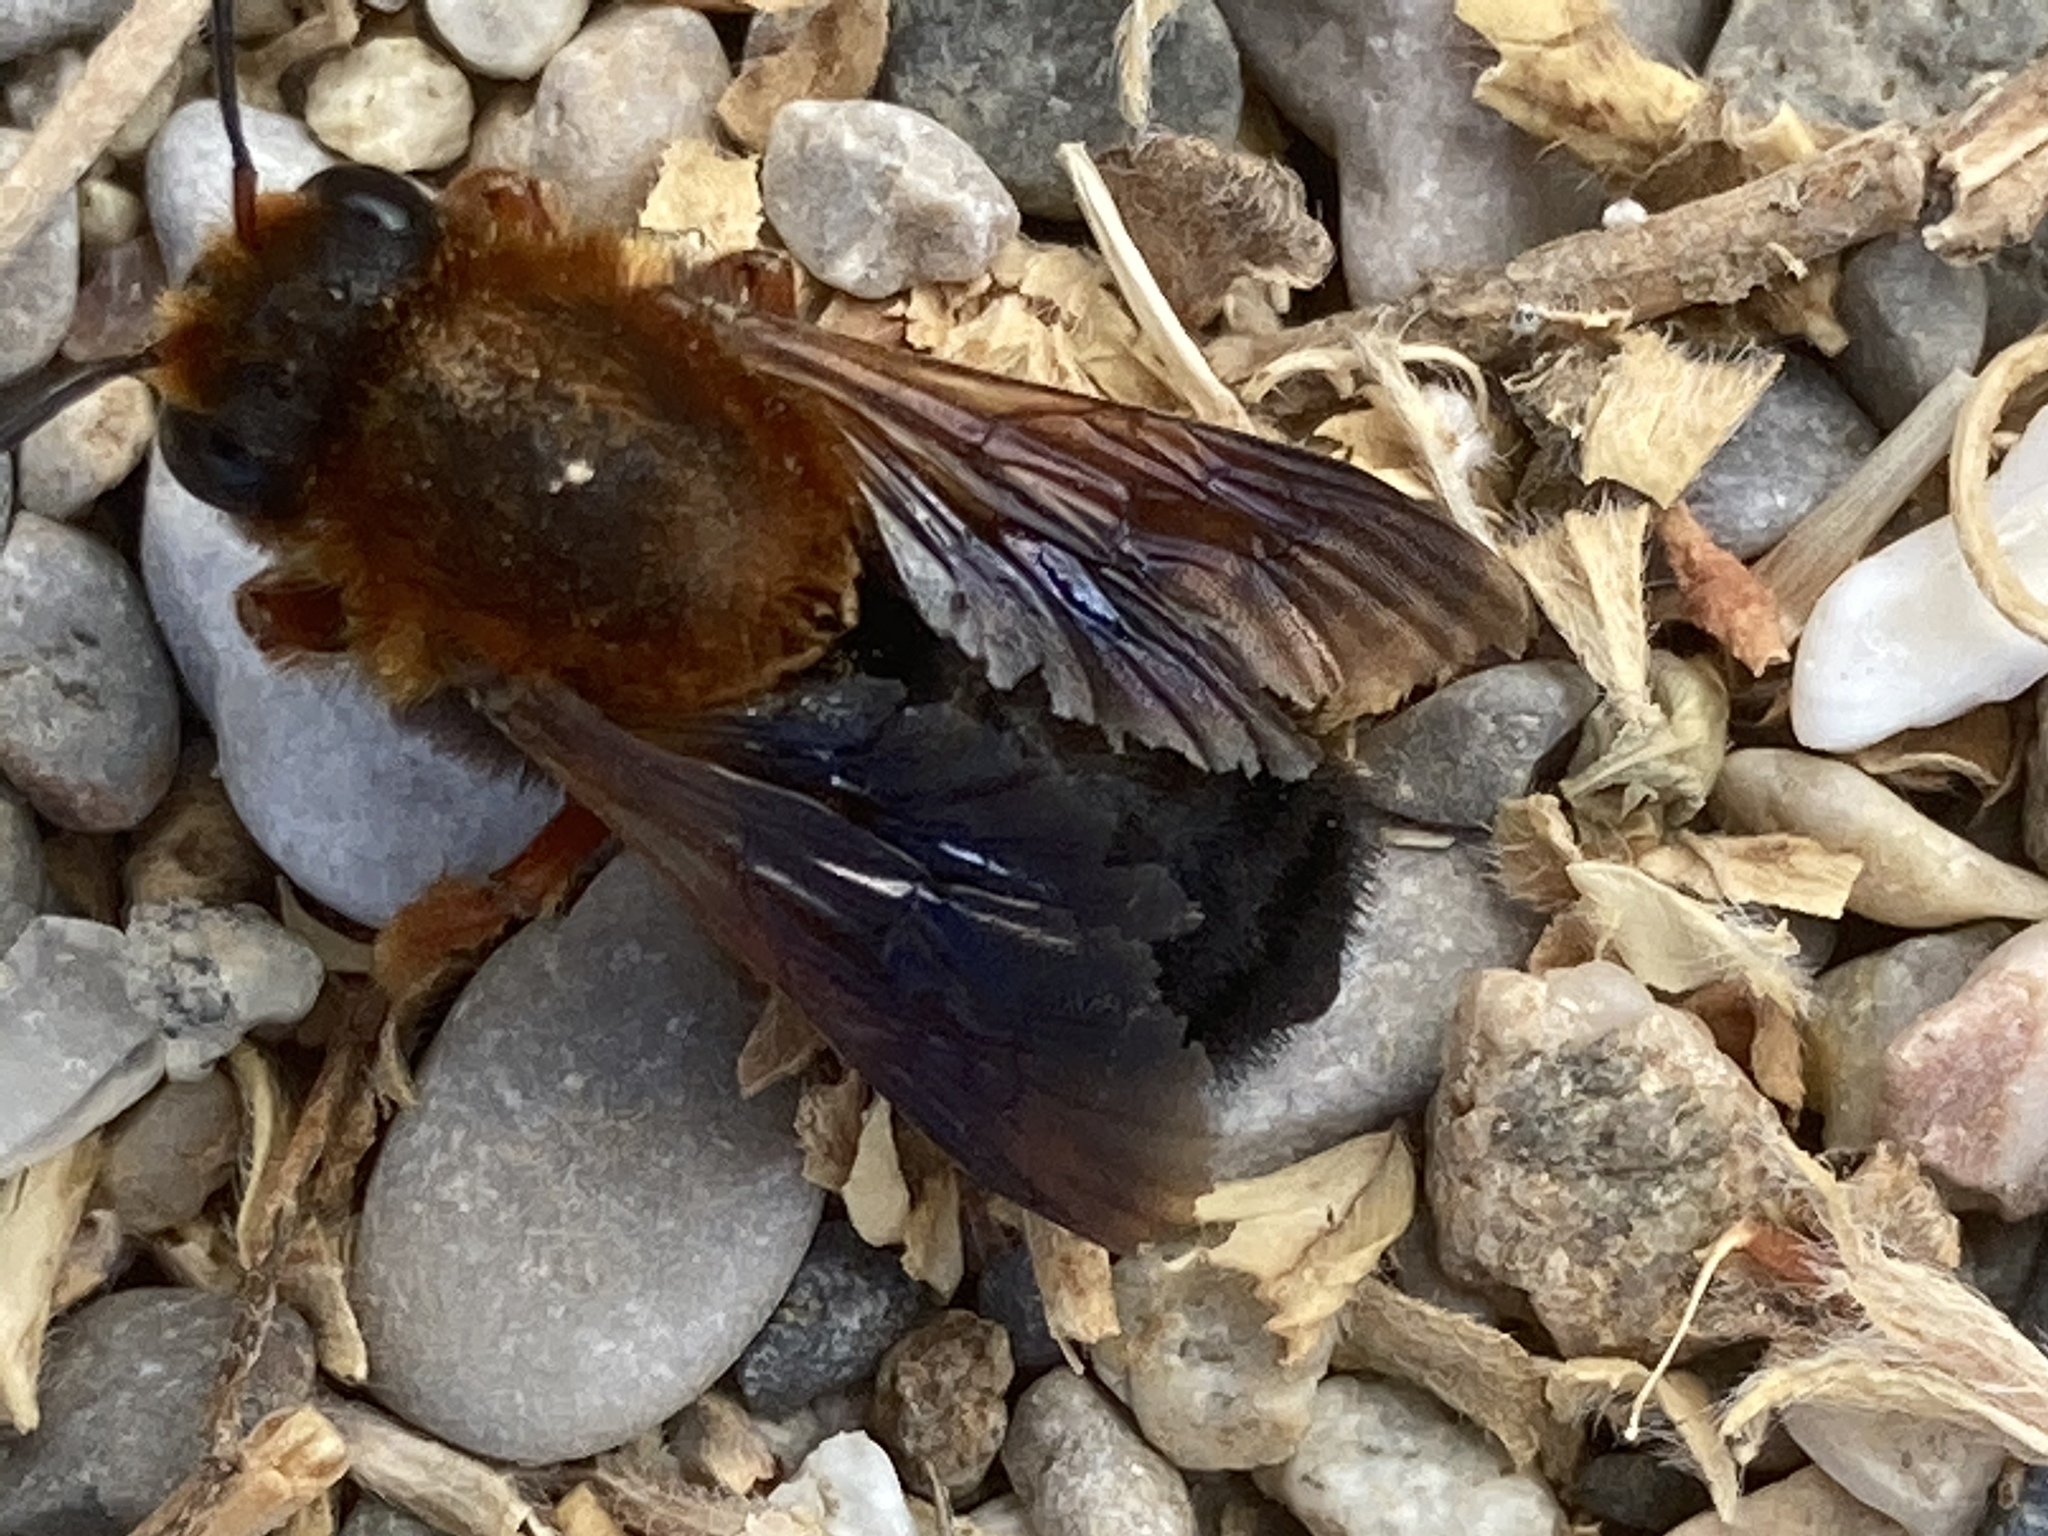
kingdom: Animalia
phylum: Arthropoda
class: Insecta
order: Hymenoptera
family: Megachilidae
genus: Megachile
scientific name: Megachile sicula
